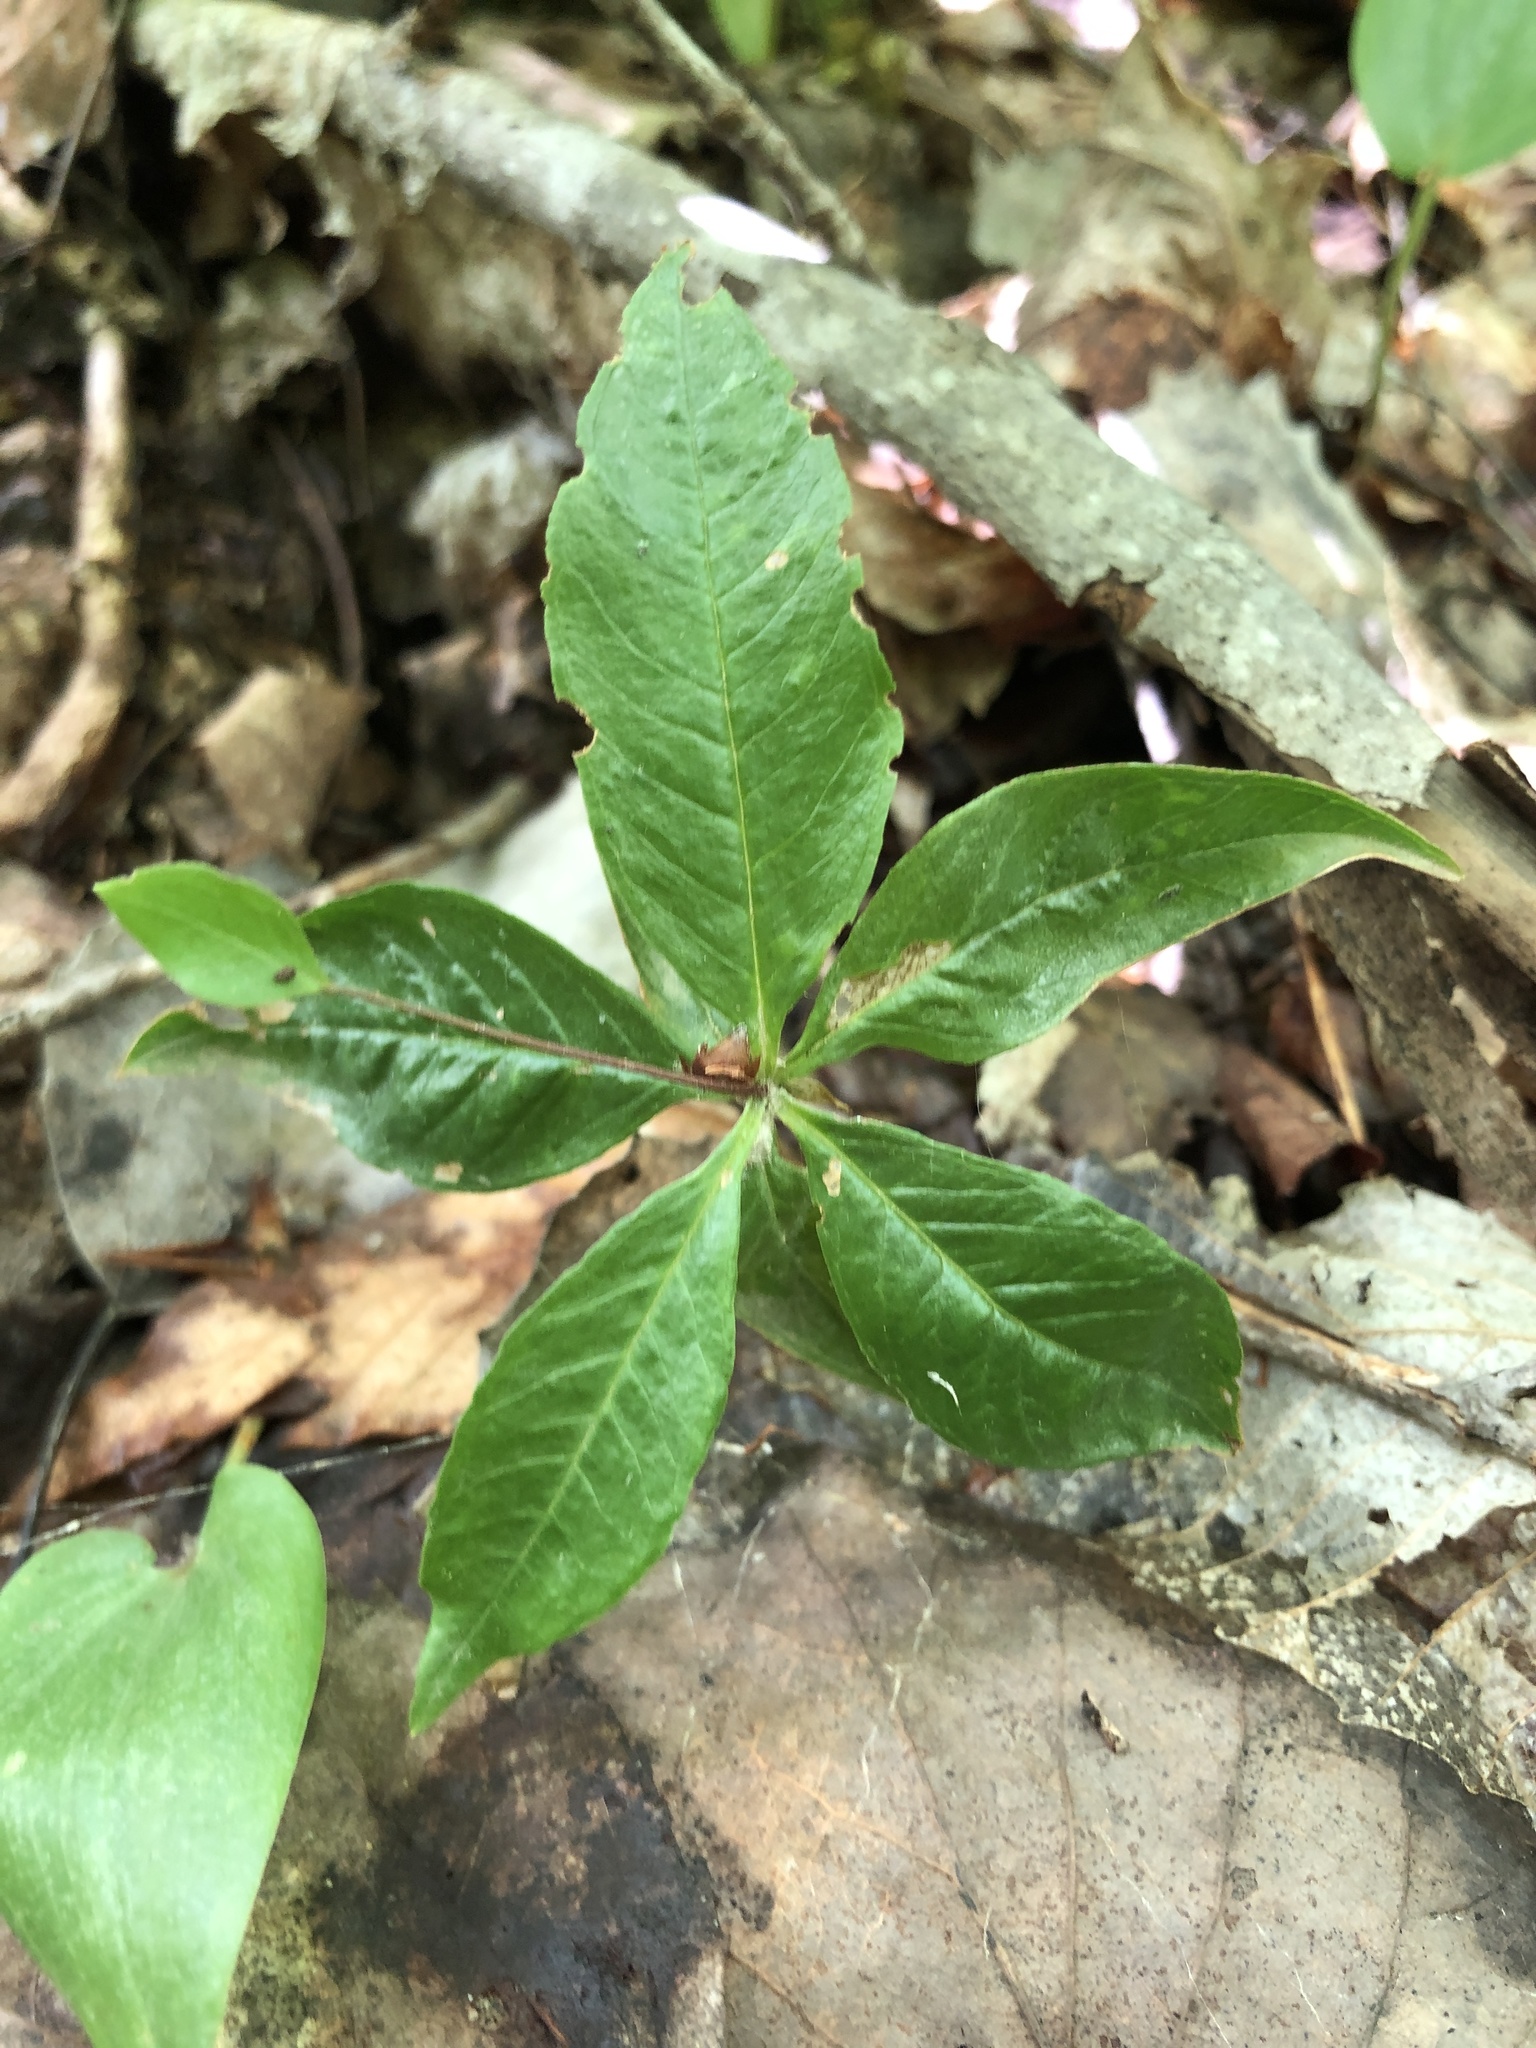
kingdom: Plantae
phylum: Tracheophyta
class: Magnoliopsida
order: Ericales
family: Primulaceae
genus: Lysimachia
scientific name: Lysimachia borealis
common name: American starflower
